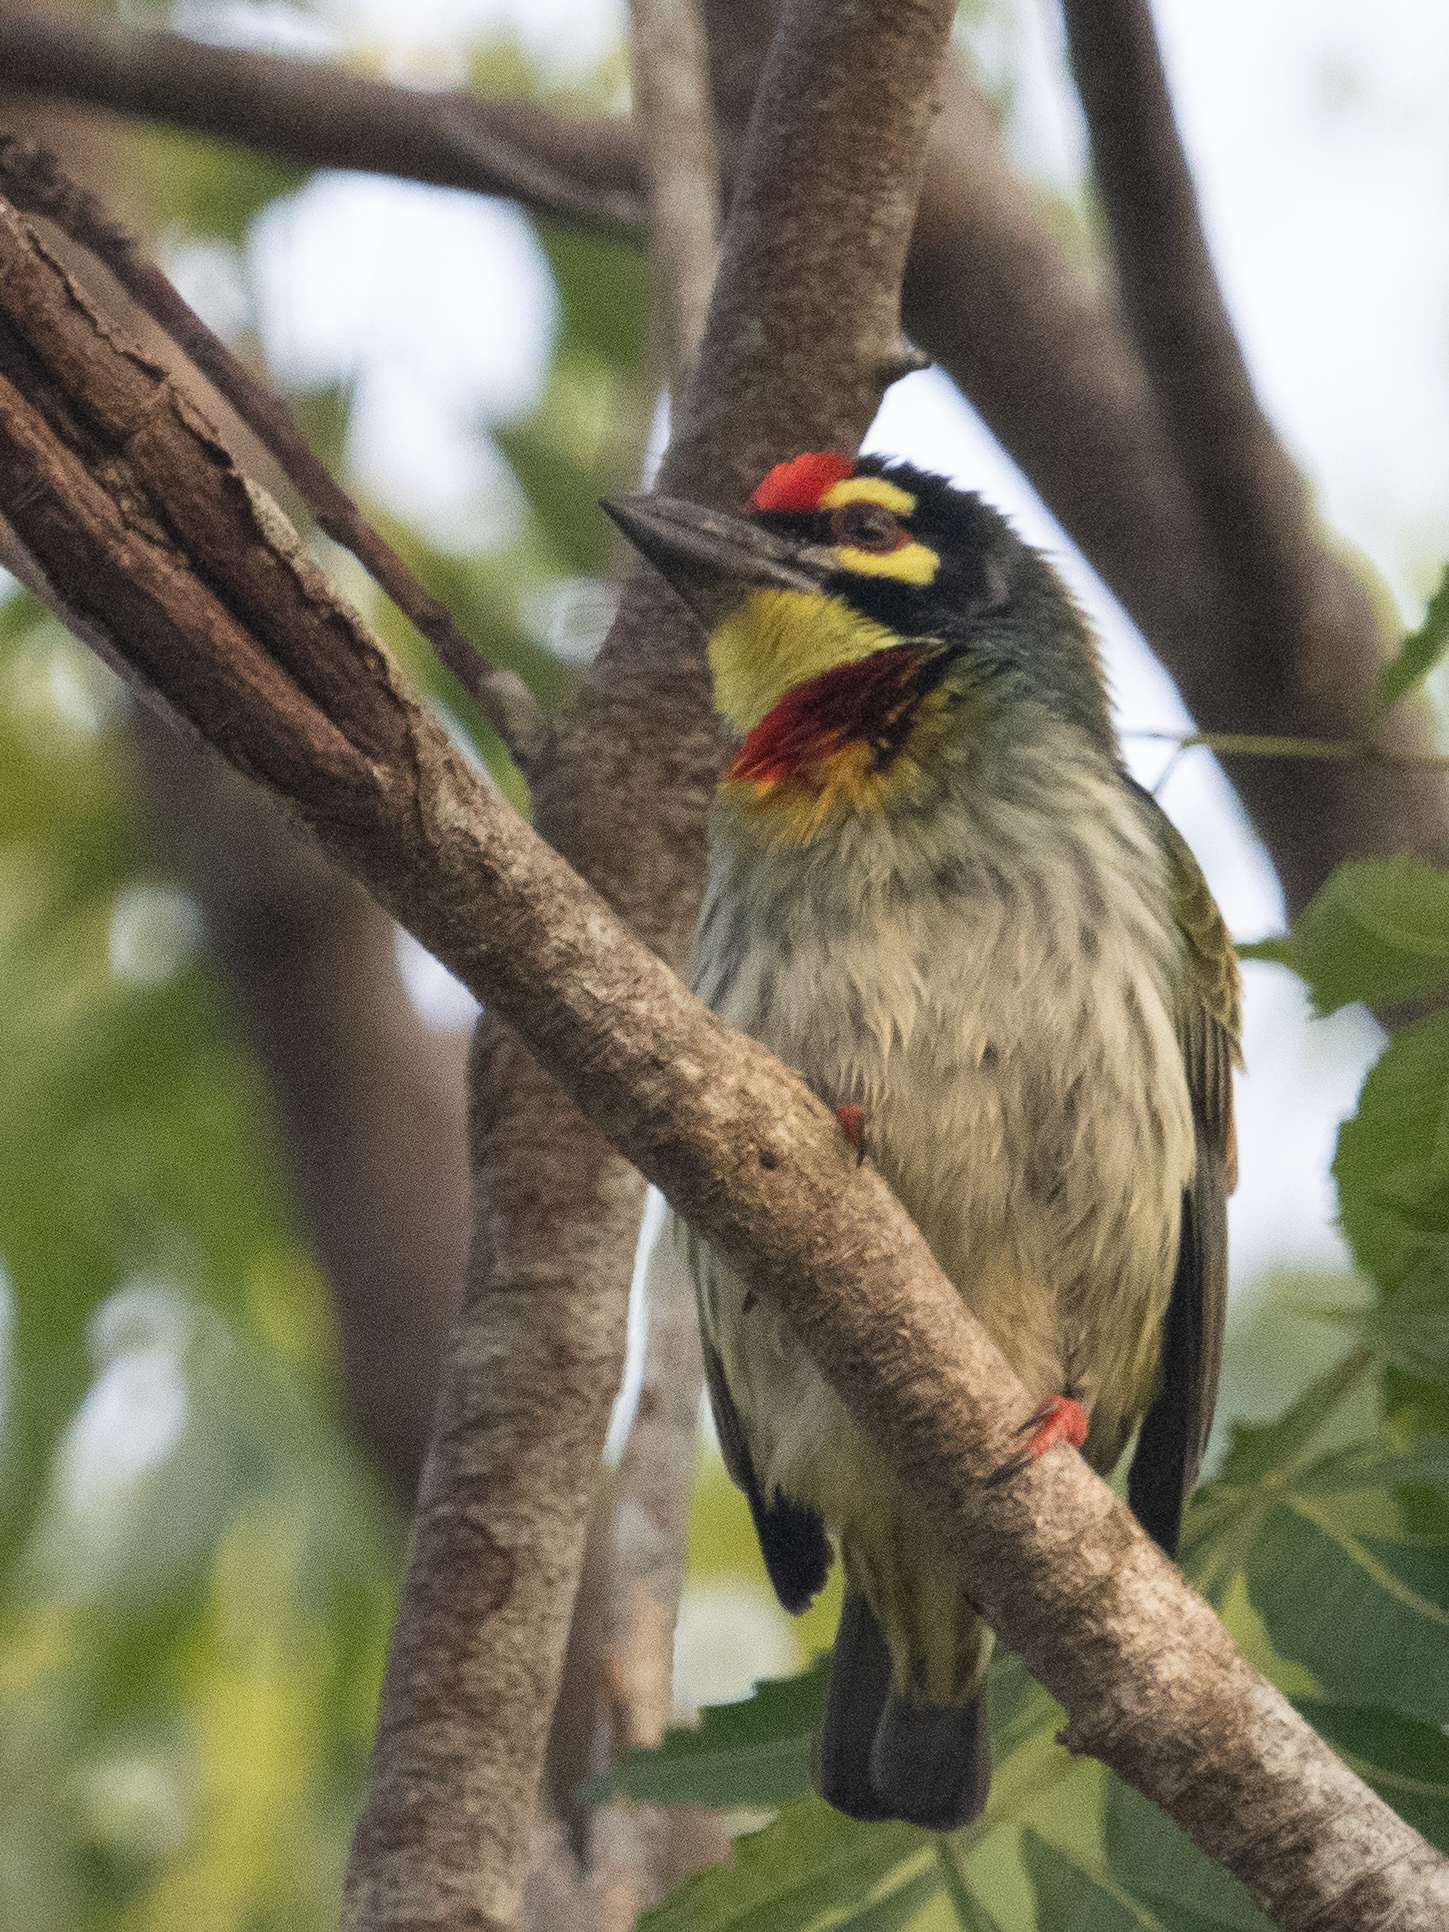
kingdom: Animalia
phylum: Chordata
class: Aves
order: Piciformes
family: Megalaimidae
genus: Psilopogon
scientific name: Psilopogon haemacephalus
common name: Coppersmith barbet
